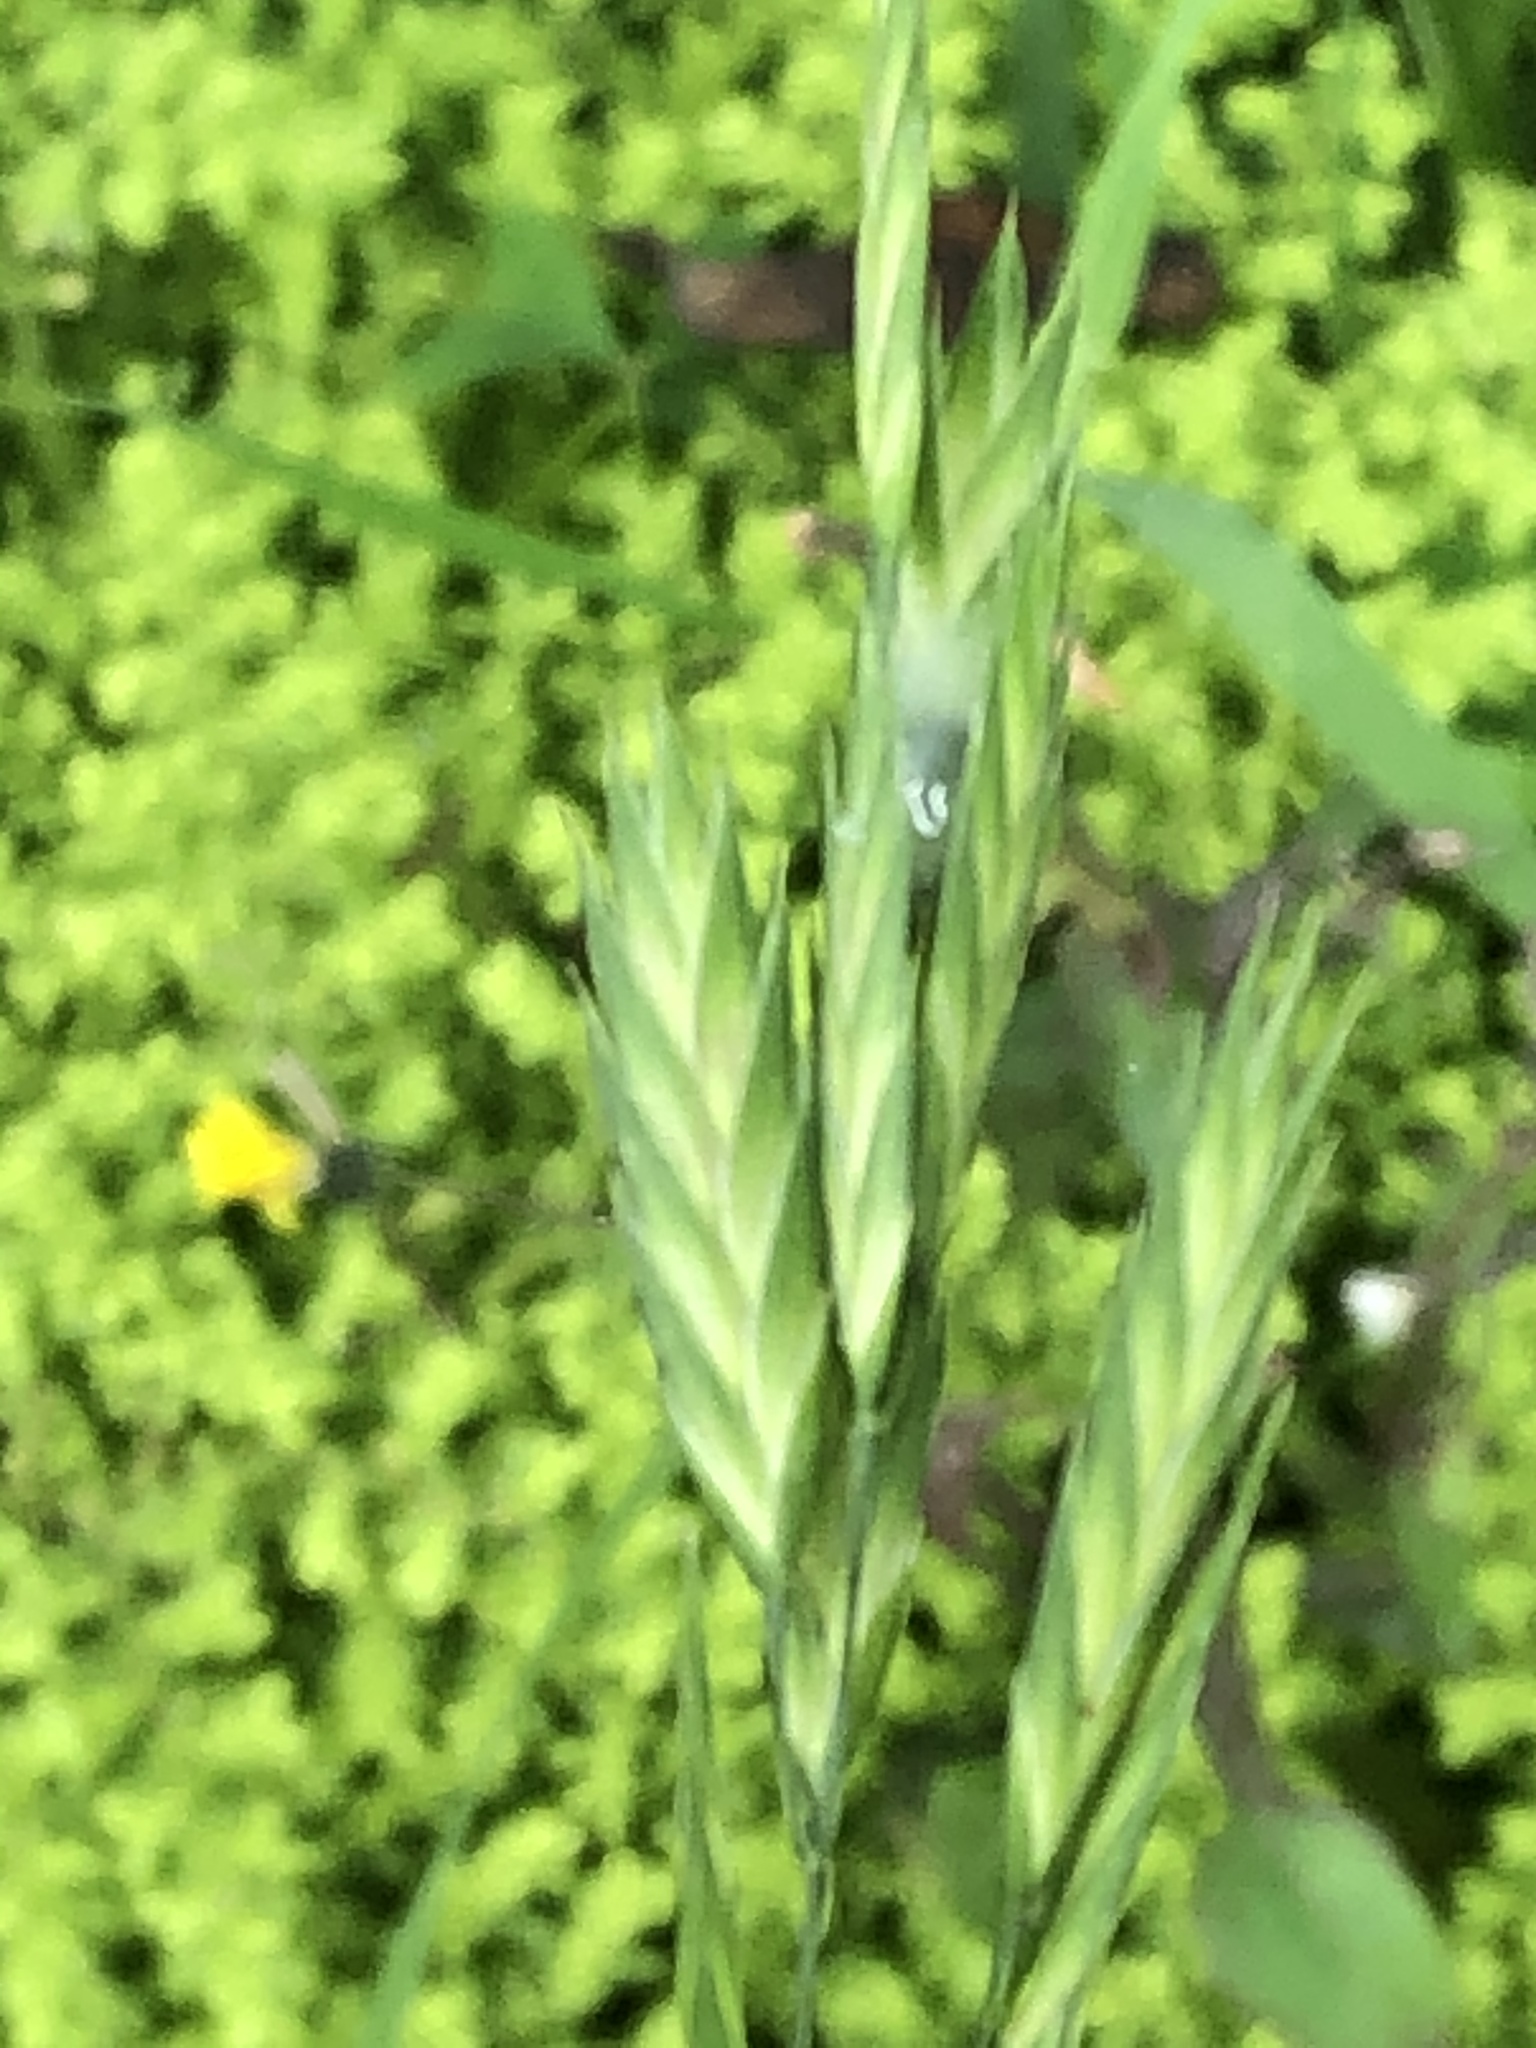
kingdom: Plantae
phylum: Tracheophyta
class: Magnoliopsida
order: Rosales
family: Urticaceae
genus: Pilea
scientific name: Pilea microphylla
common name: Artillery-plant
